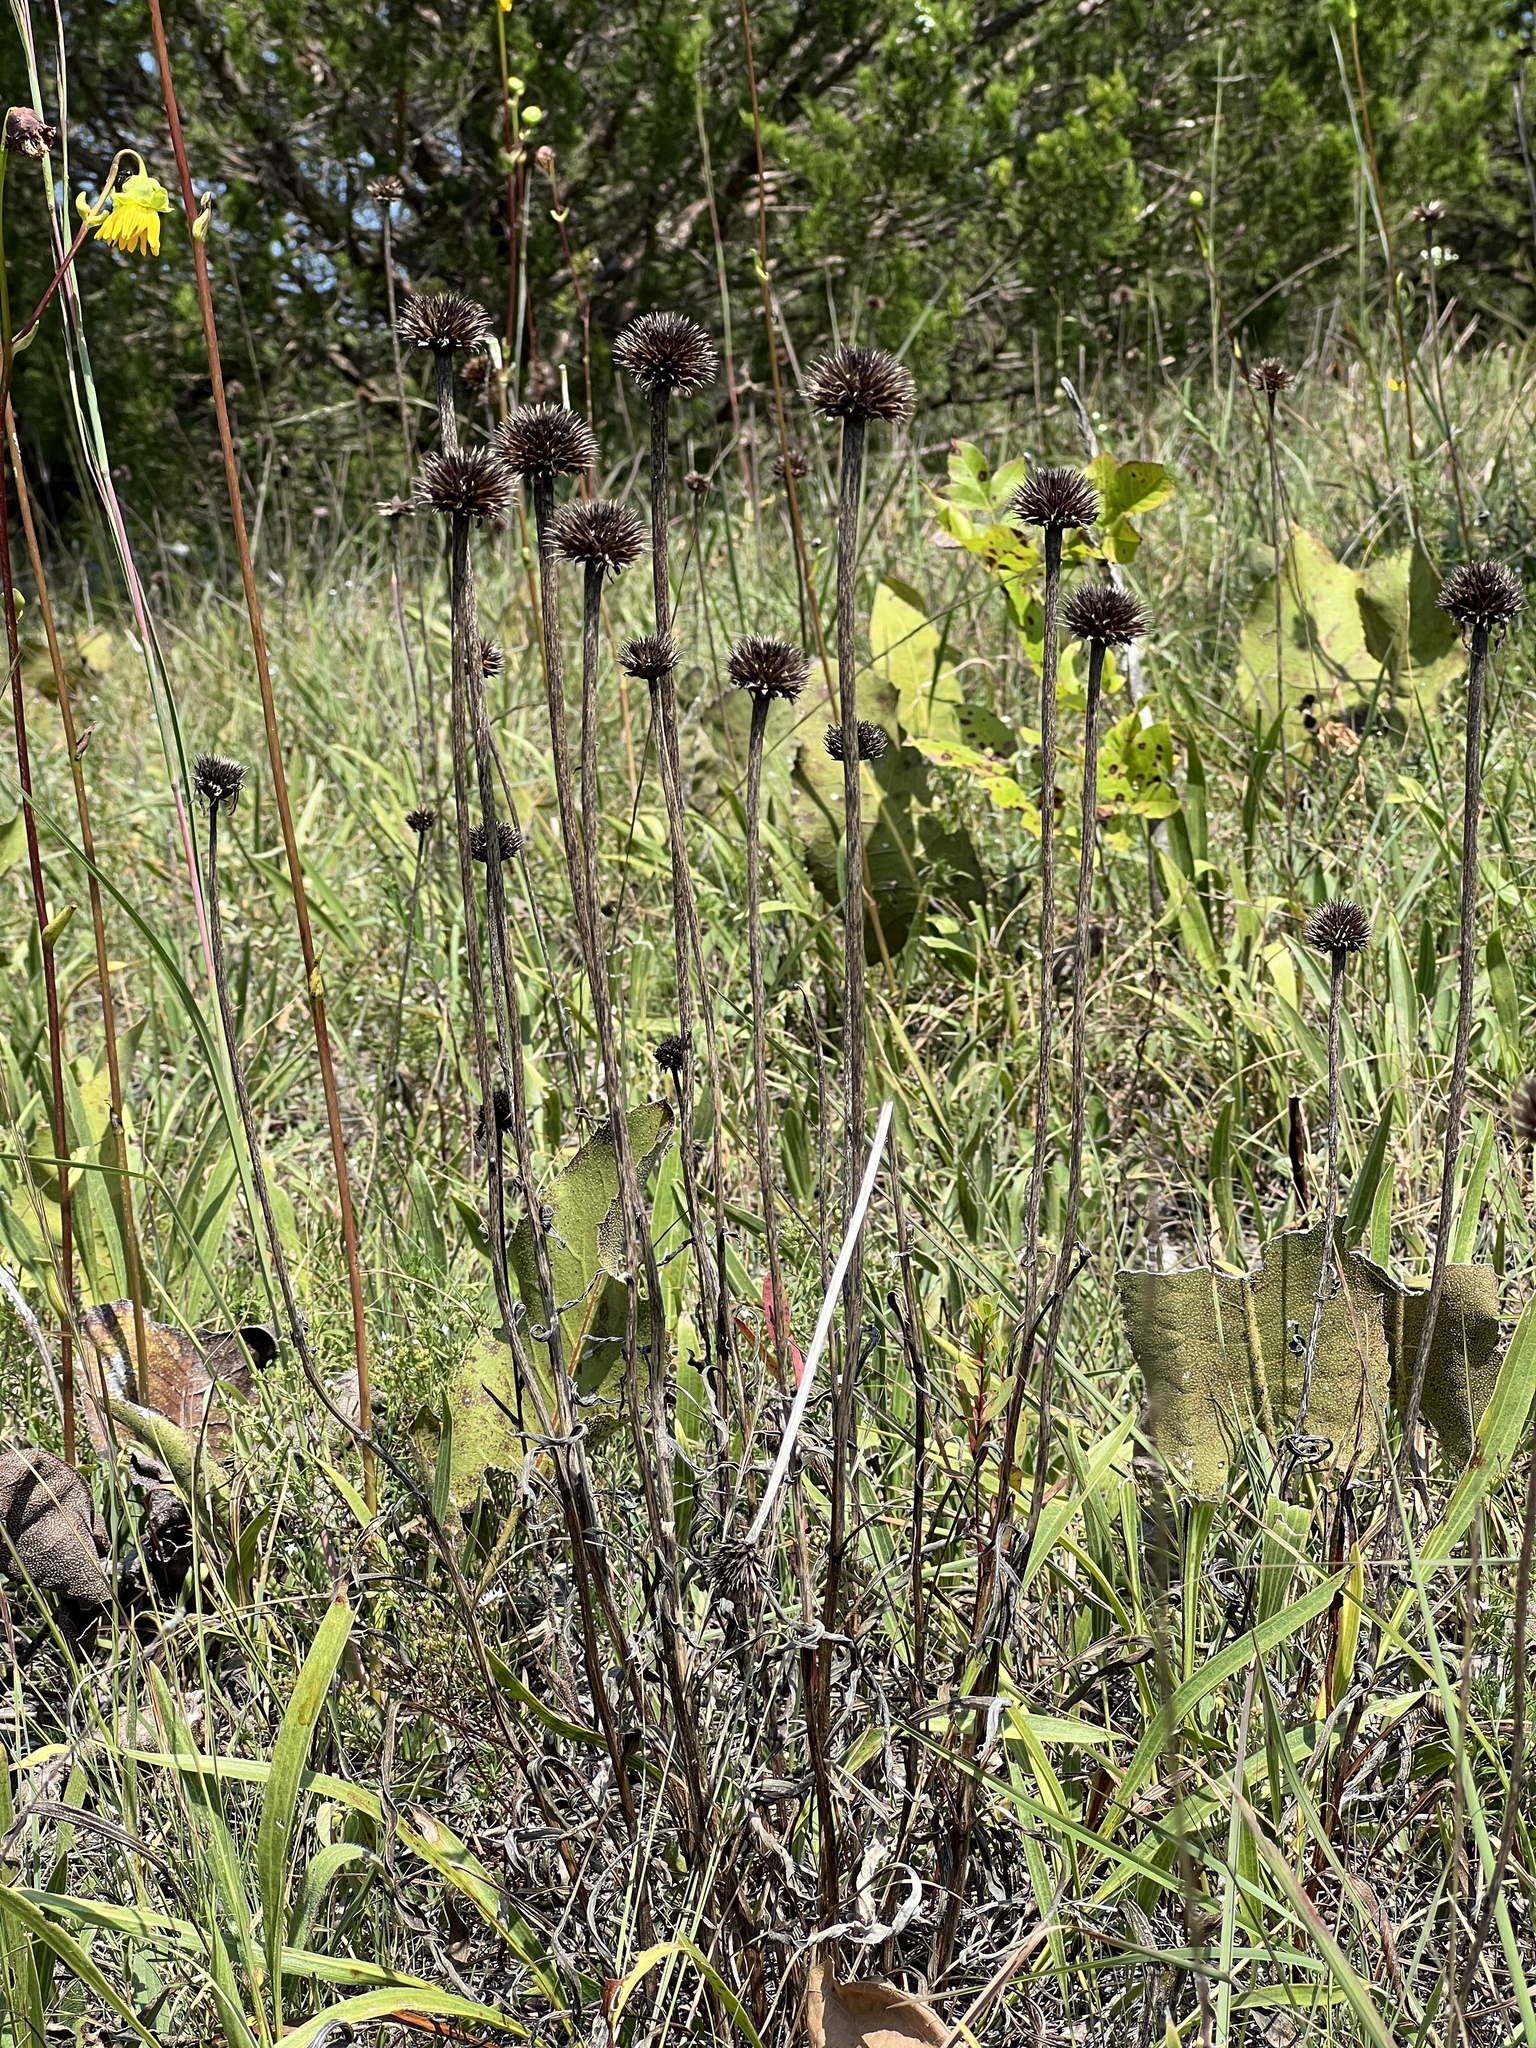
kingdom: Plantae
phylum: Tracheophyta
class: Magnoliopsida
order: Asterales
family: Asteraceae
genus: Echinacea
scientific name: Echinacea paradoxa
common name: Bush's purple-coneflower
